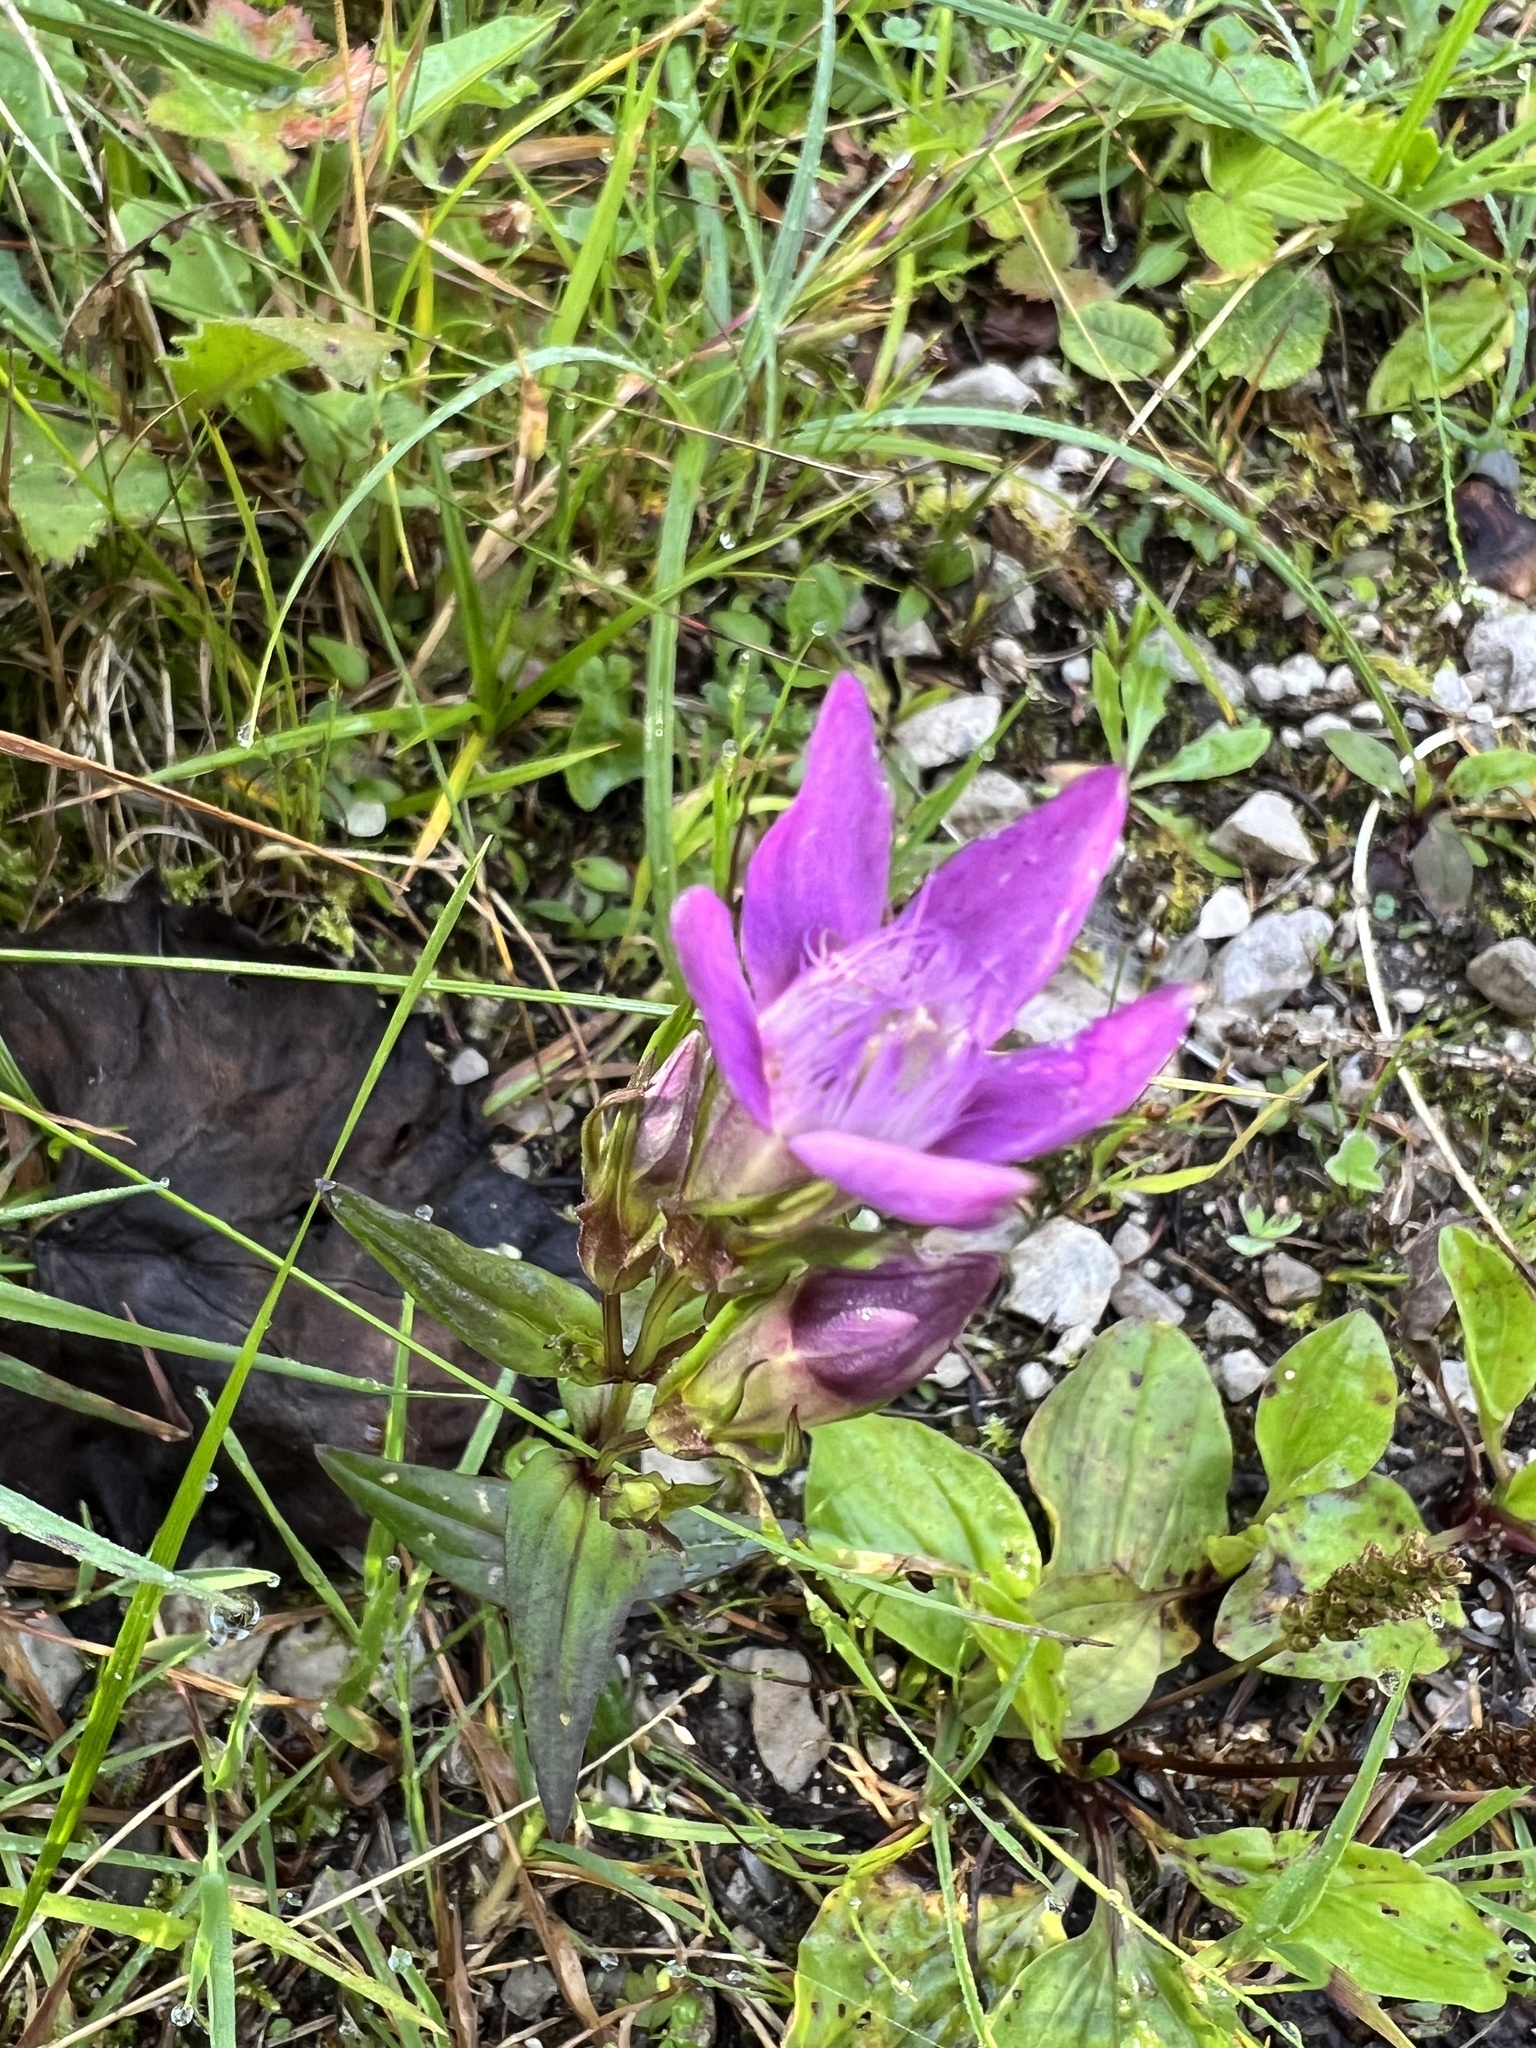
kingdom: Plantae
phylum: Tracheophyta
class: Magnoliopsida
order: Gentianales
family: Gentianaceae
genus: Gentianella
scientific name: Gentianella germanica
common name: Chiltern-gentian
